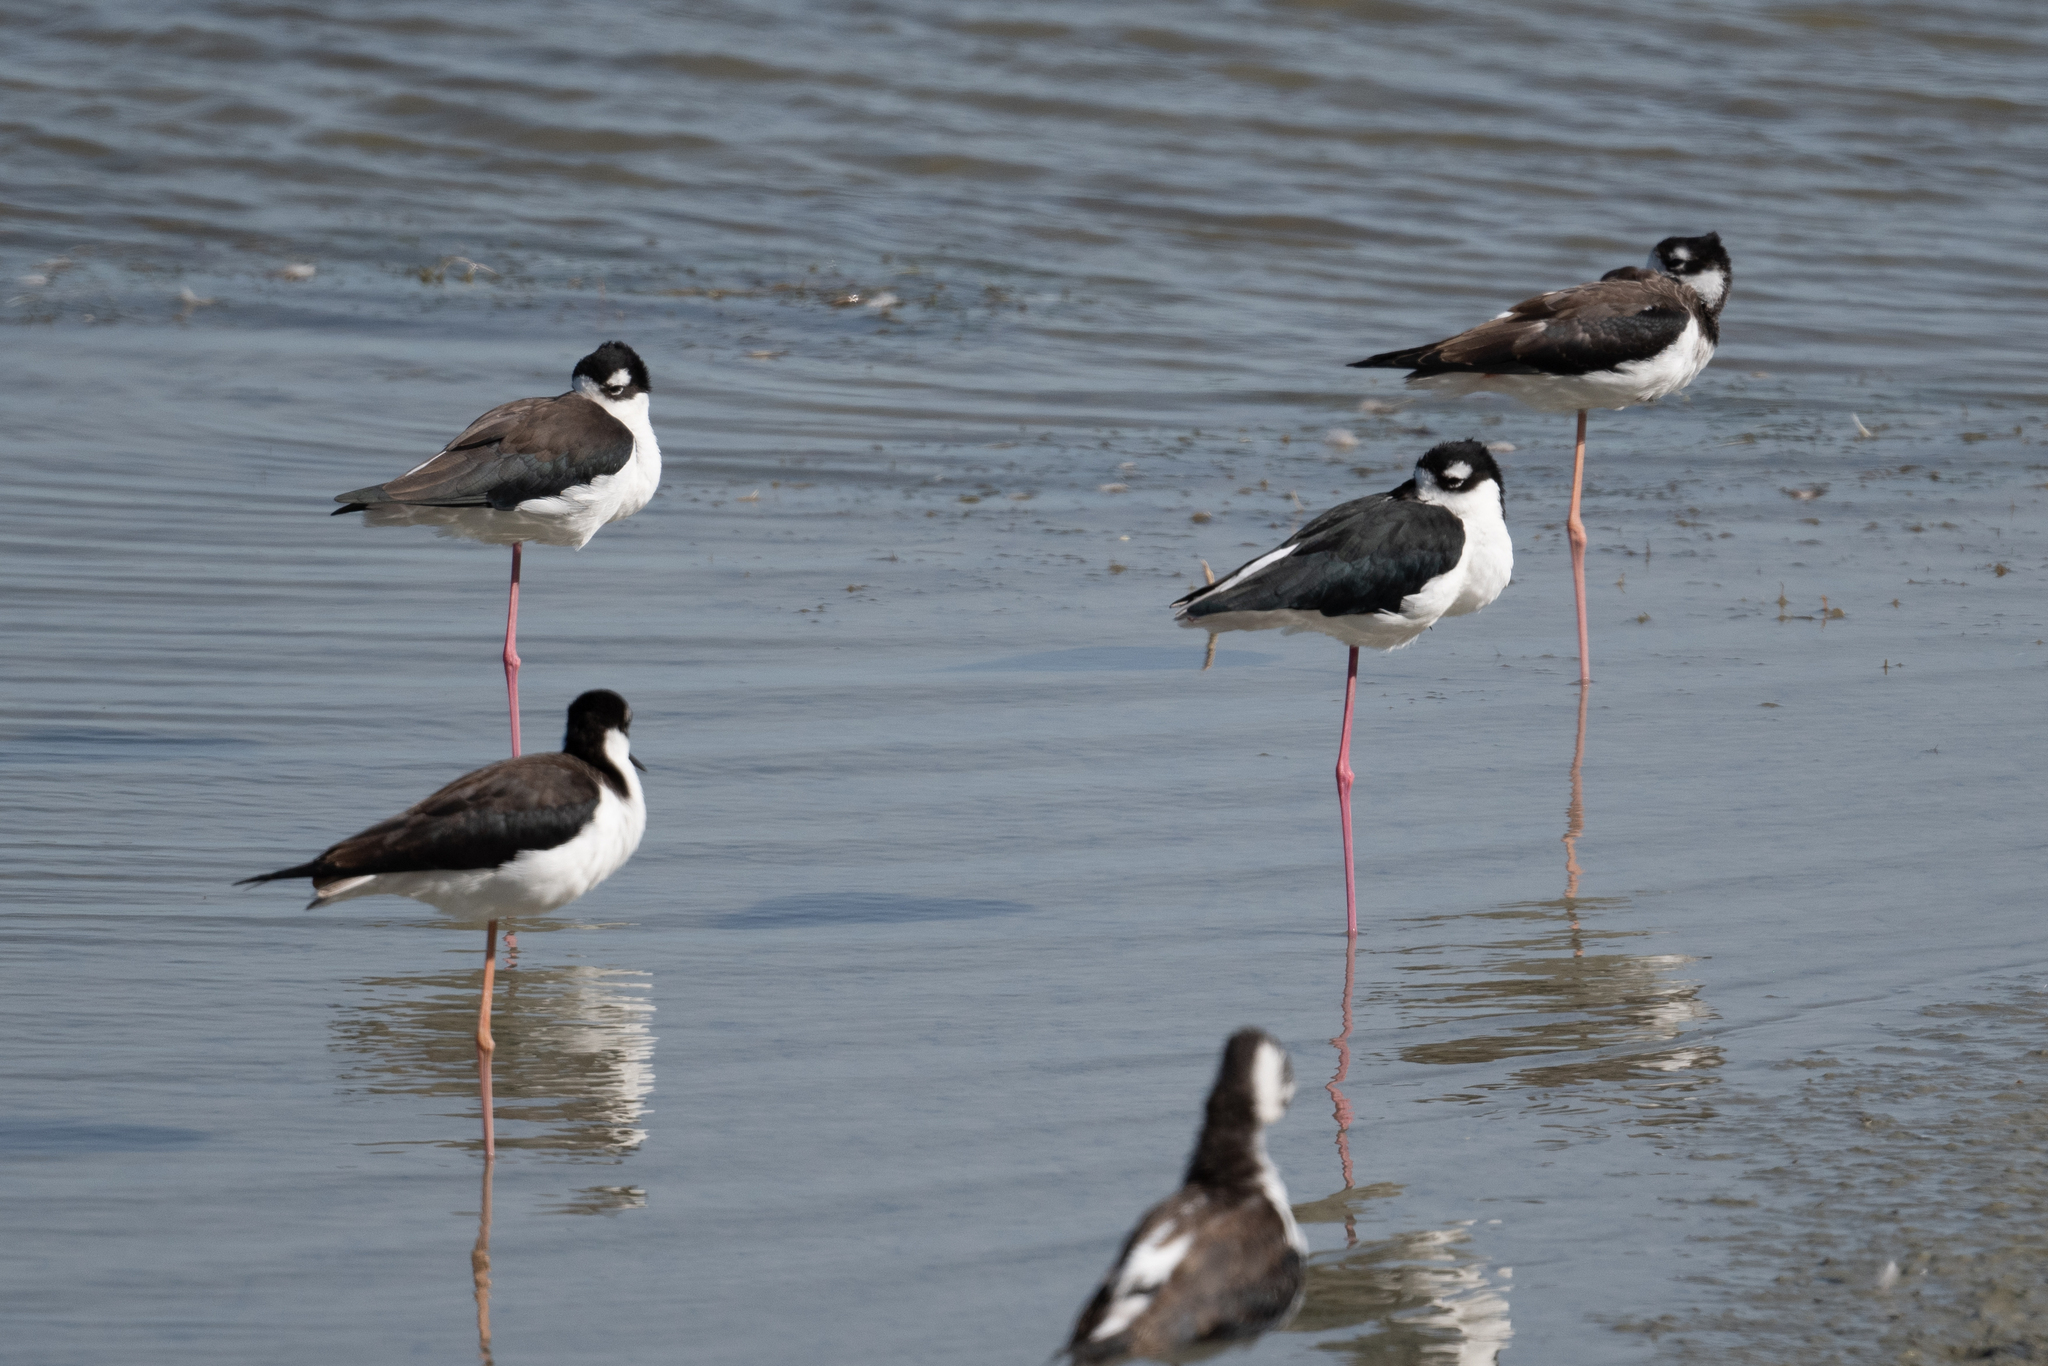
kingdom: Animalia
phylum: Chordata
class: Aves
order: Charadriiformes
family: Recurvirostridae
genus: Himantopus
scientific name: Himantopus mexicanus
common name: Black-necked stilt
